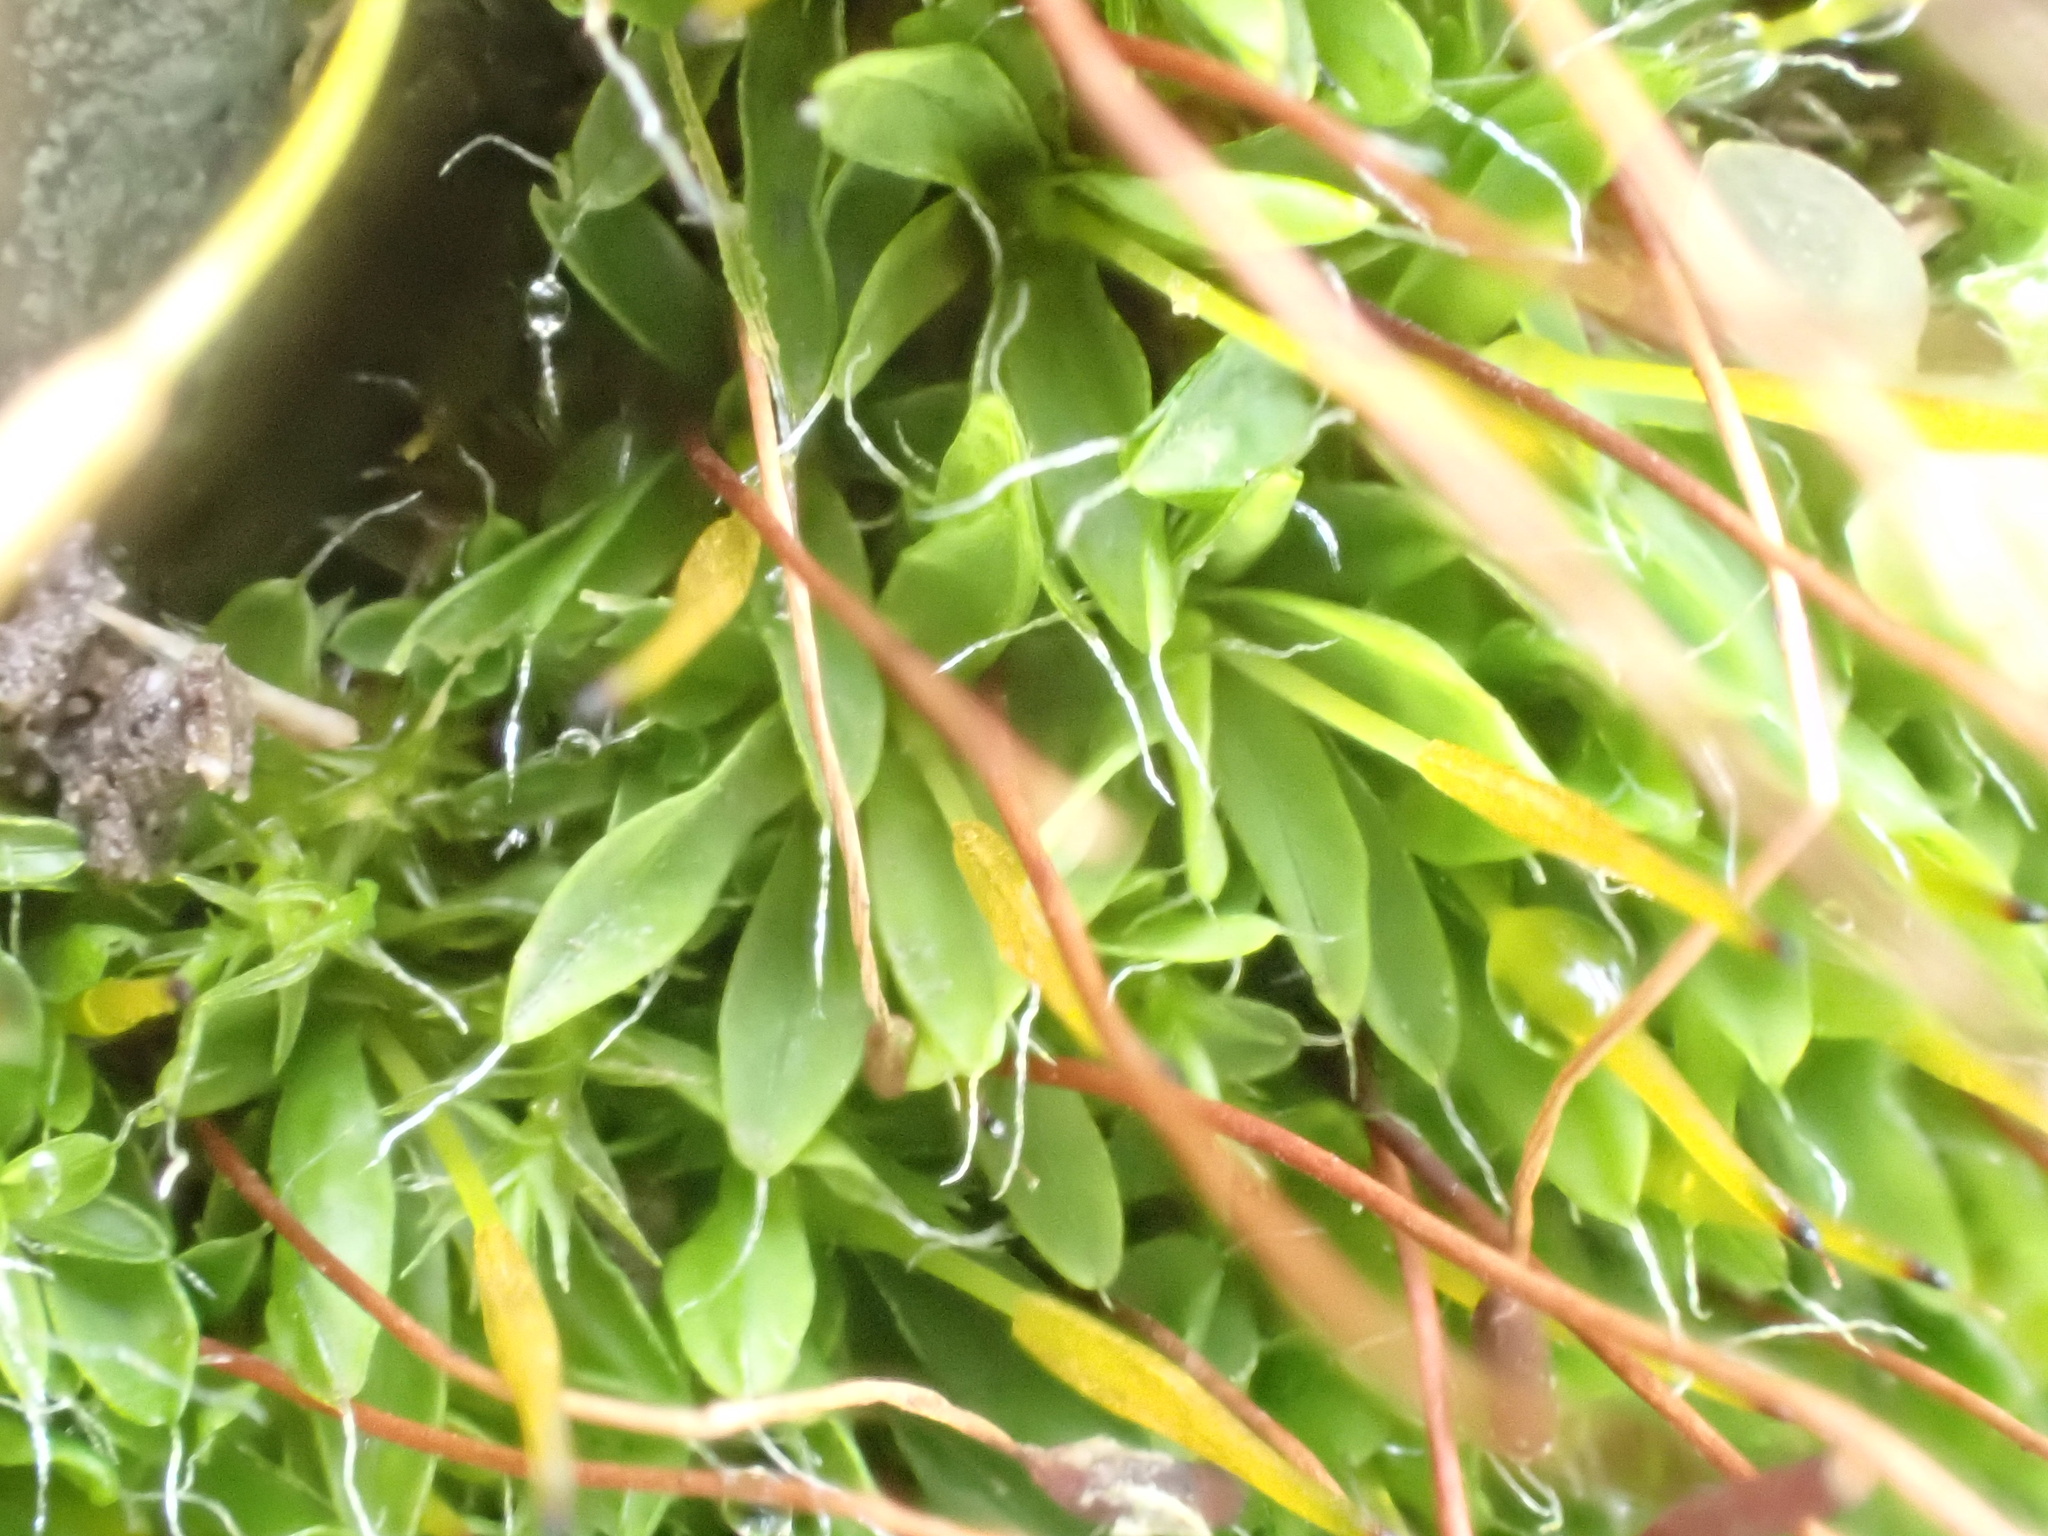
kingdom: Plantae
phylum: Bryophyta
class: Bryopsida
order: Pottiales
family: Pottiaceae
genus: Tortula
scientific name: Tortula muralis
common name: Wall screw-moss
